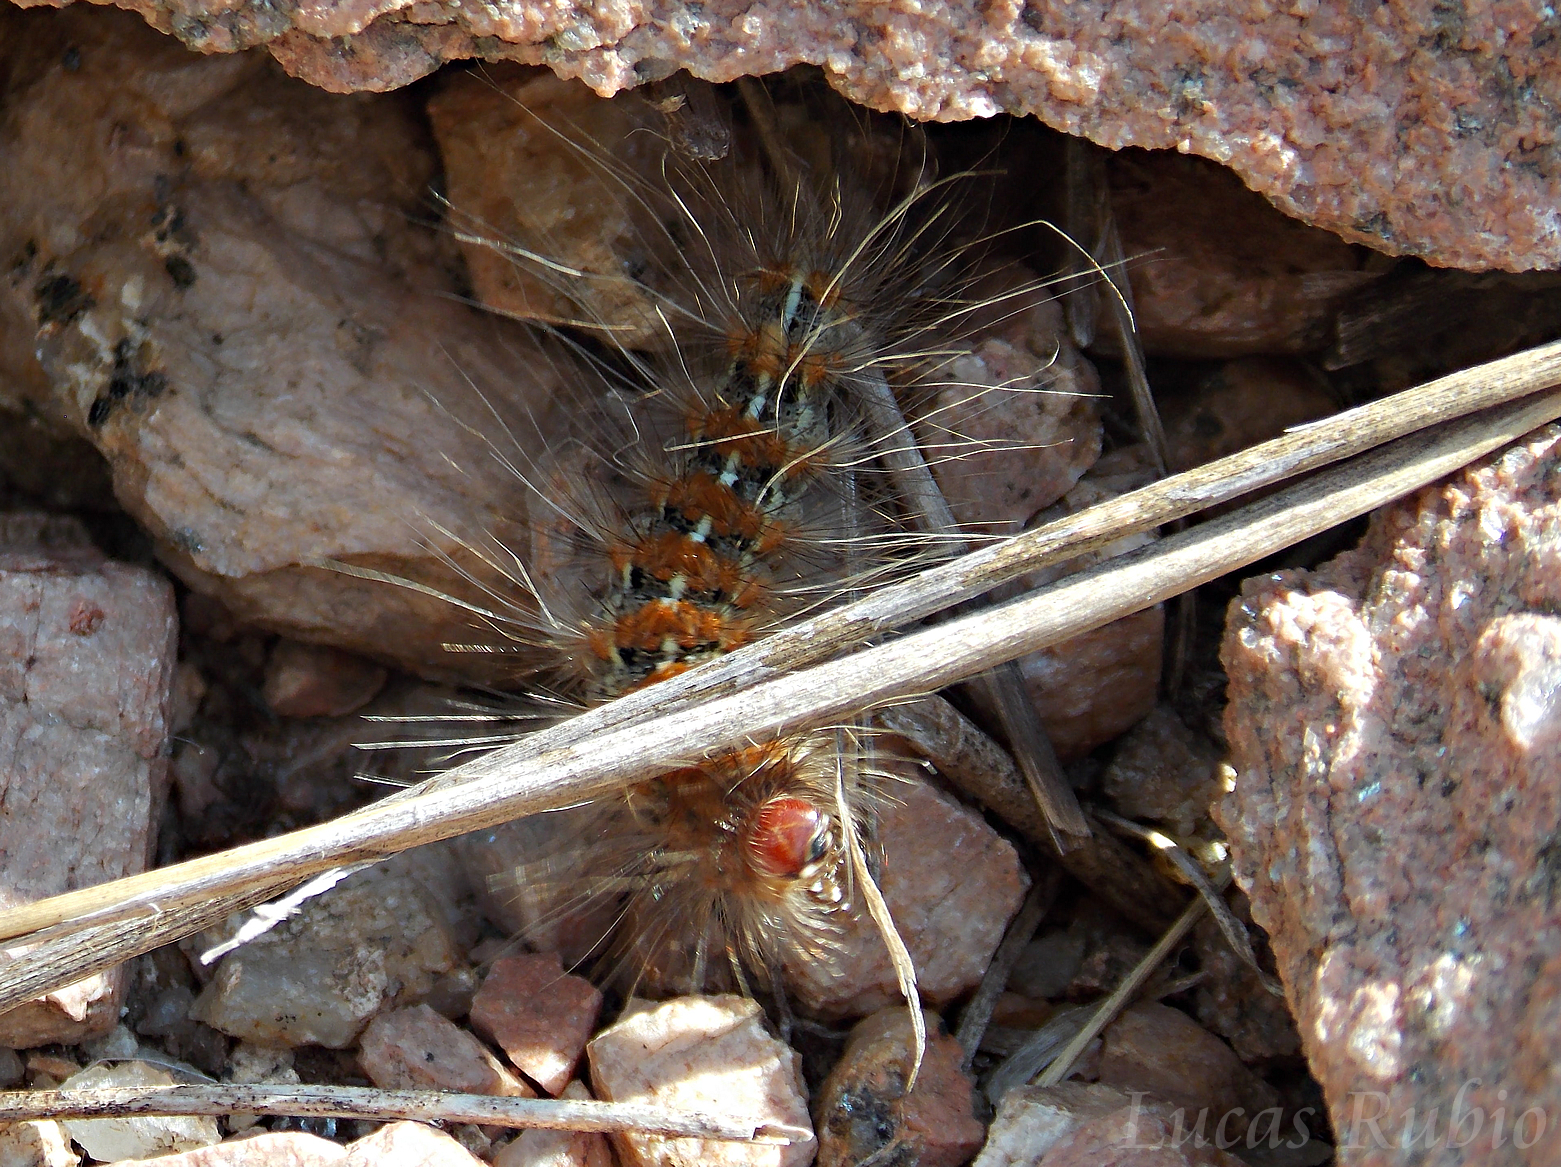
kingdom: Animalia
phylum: Arthropoda
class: Insecta
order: Lepidoptera
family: Erebidae
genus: Paracles
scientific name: Paracles deserticola
